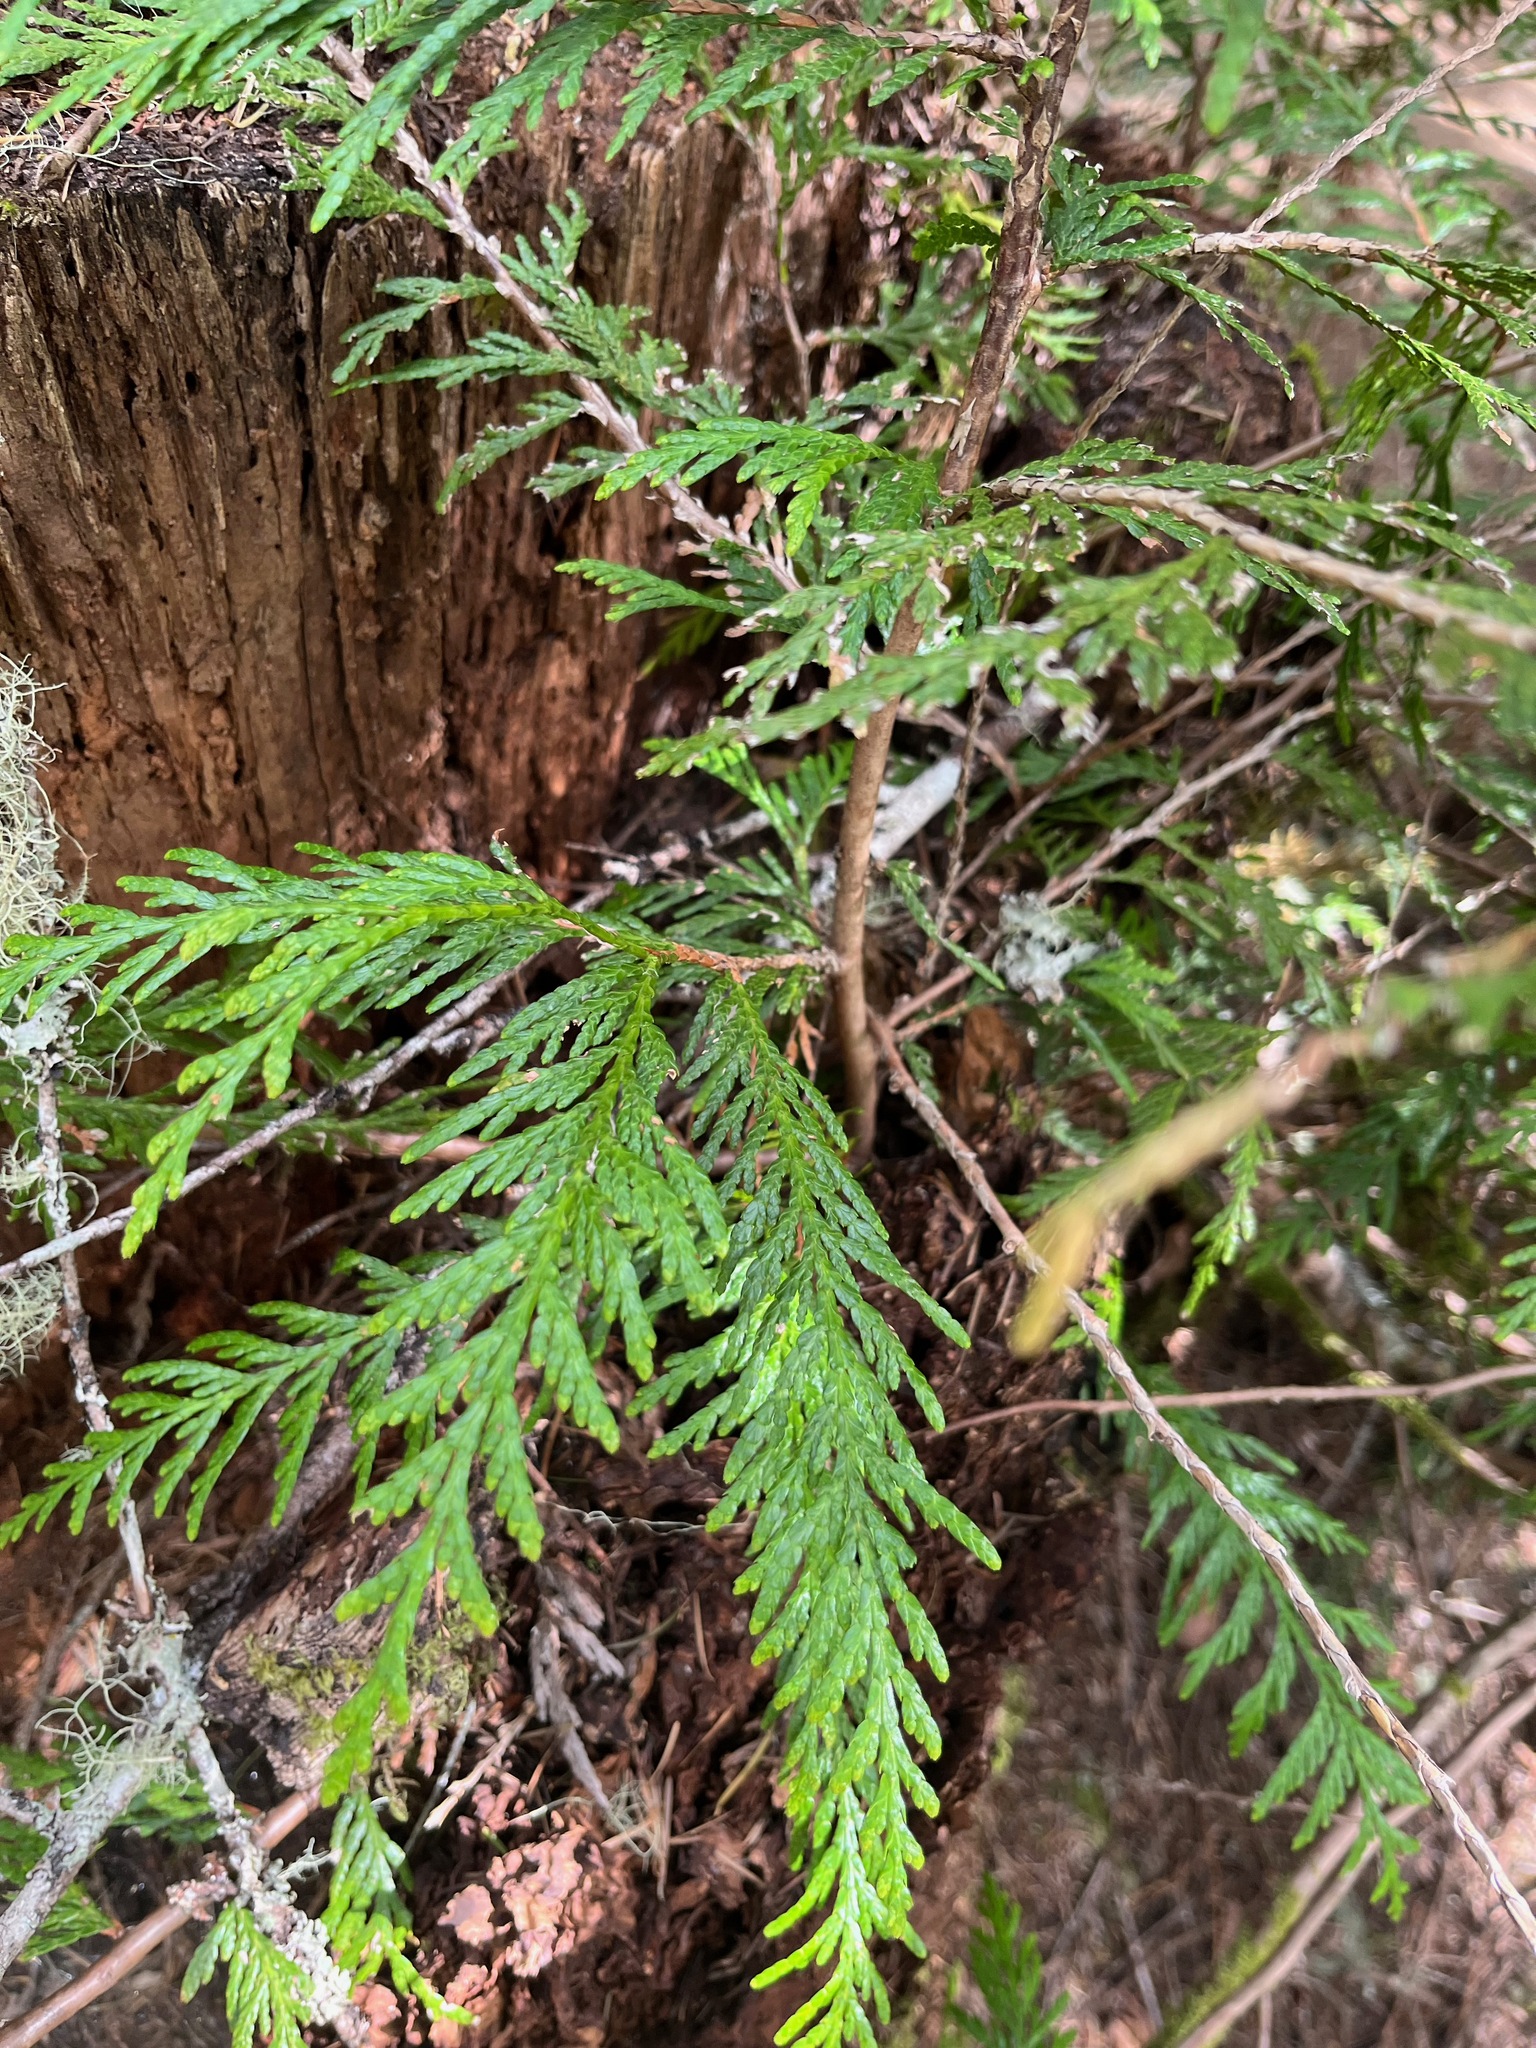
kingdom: Plantae
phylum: Tracheophyta
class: Pinopsida
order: Pinales
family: Cupressaceae
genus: Thuja
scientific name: Thuja plicata
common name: Western red-cedar
